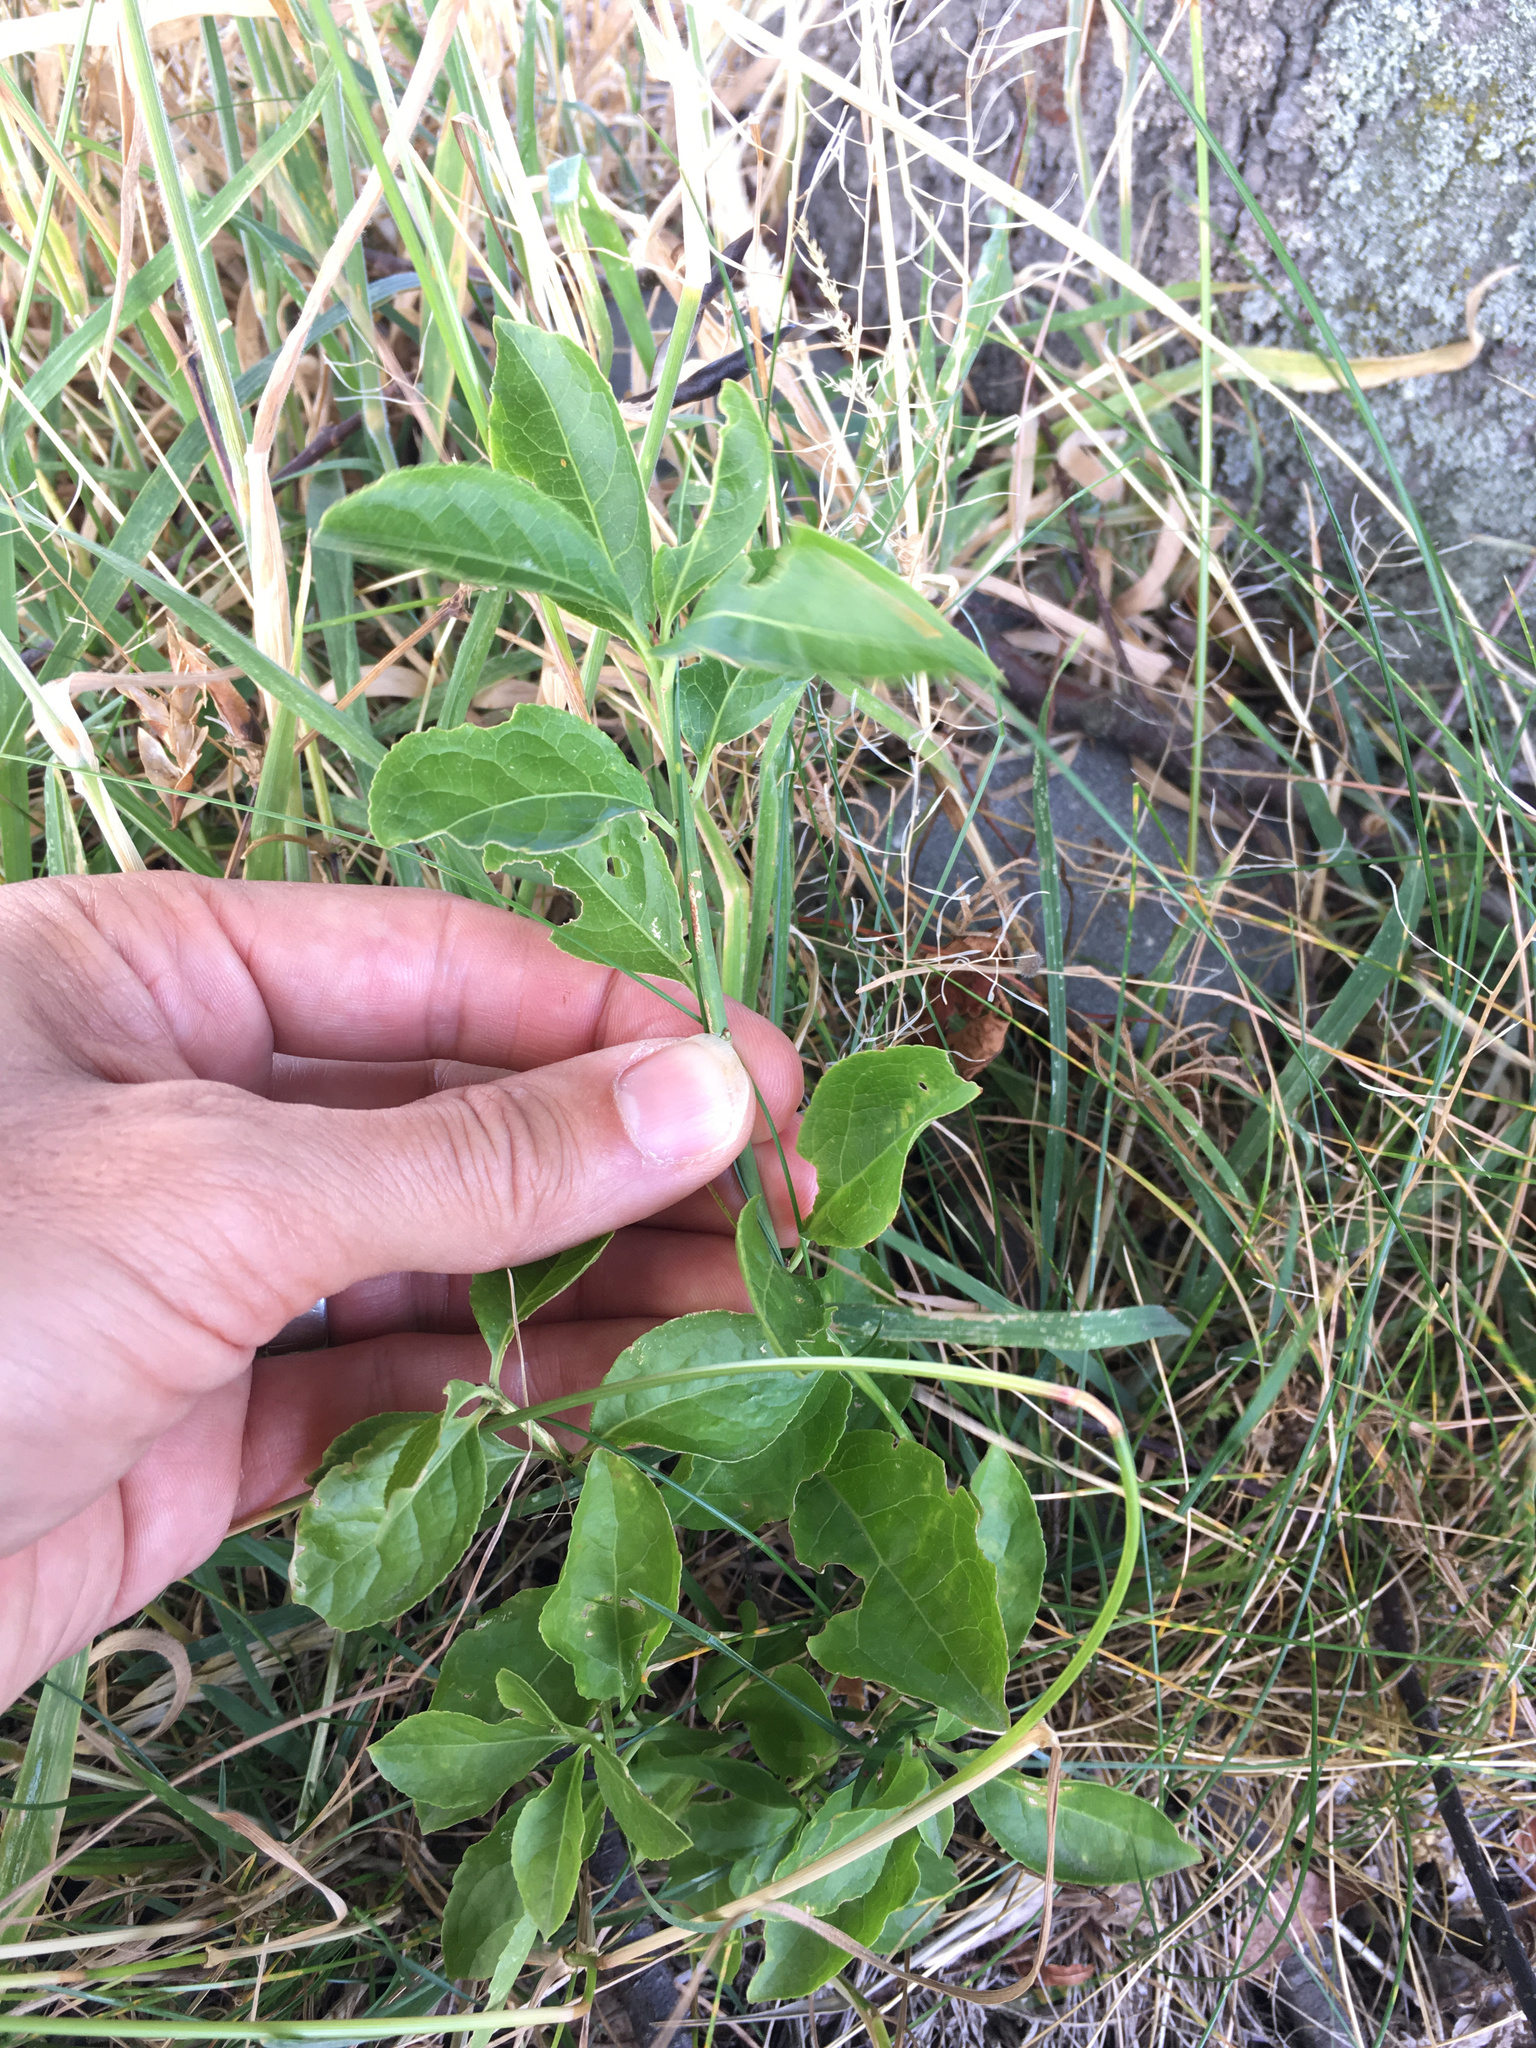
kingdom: Plantae
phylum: Tracheophyta
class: Magnoliopsida
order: Celastrales
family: Celastraceae
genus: Euonymus
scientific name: Euonymus europaeus
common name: Spindle
